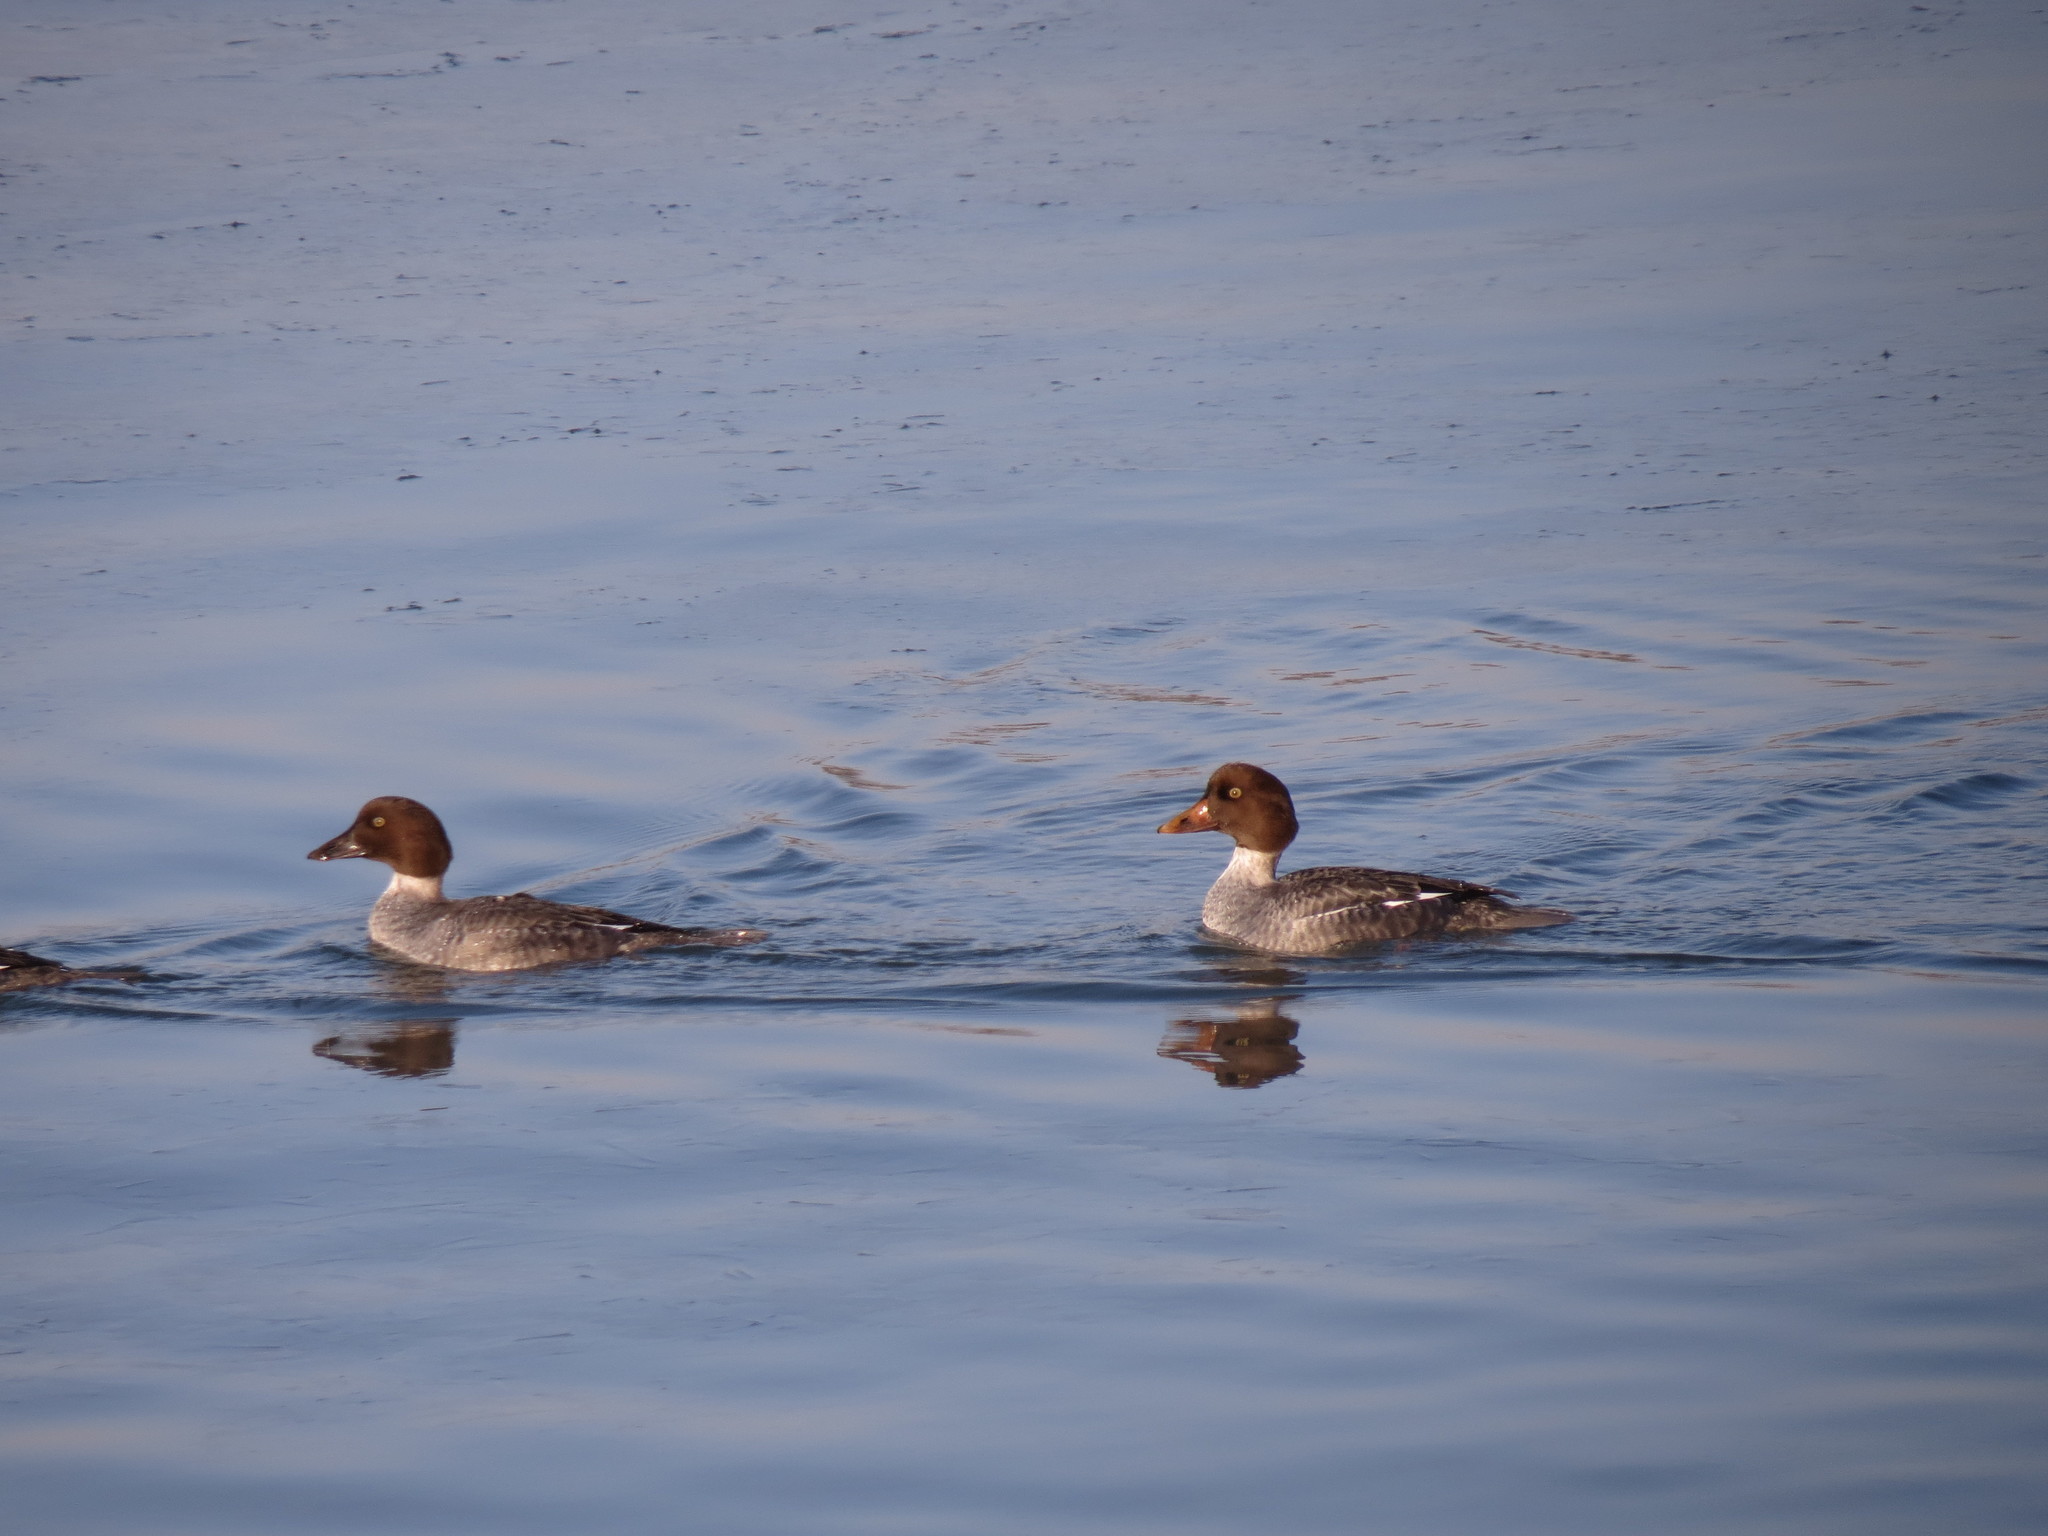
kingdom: Animalia
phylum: Chordata
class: Aves
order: Anseriformes
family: Anatidae
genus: Bucephala
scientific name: Bucephala clangula
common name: Common goldeneye
